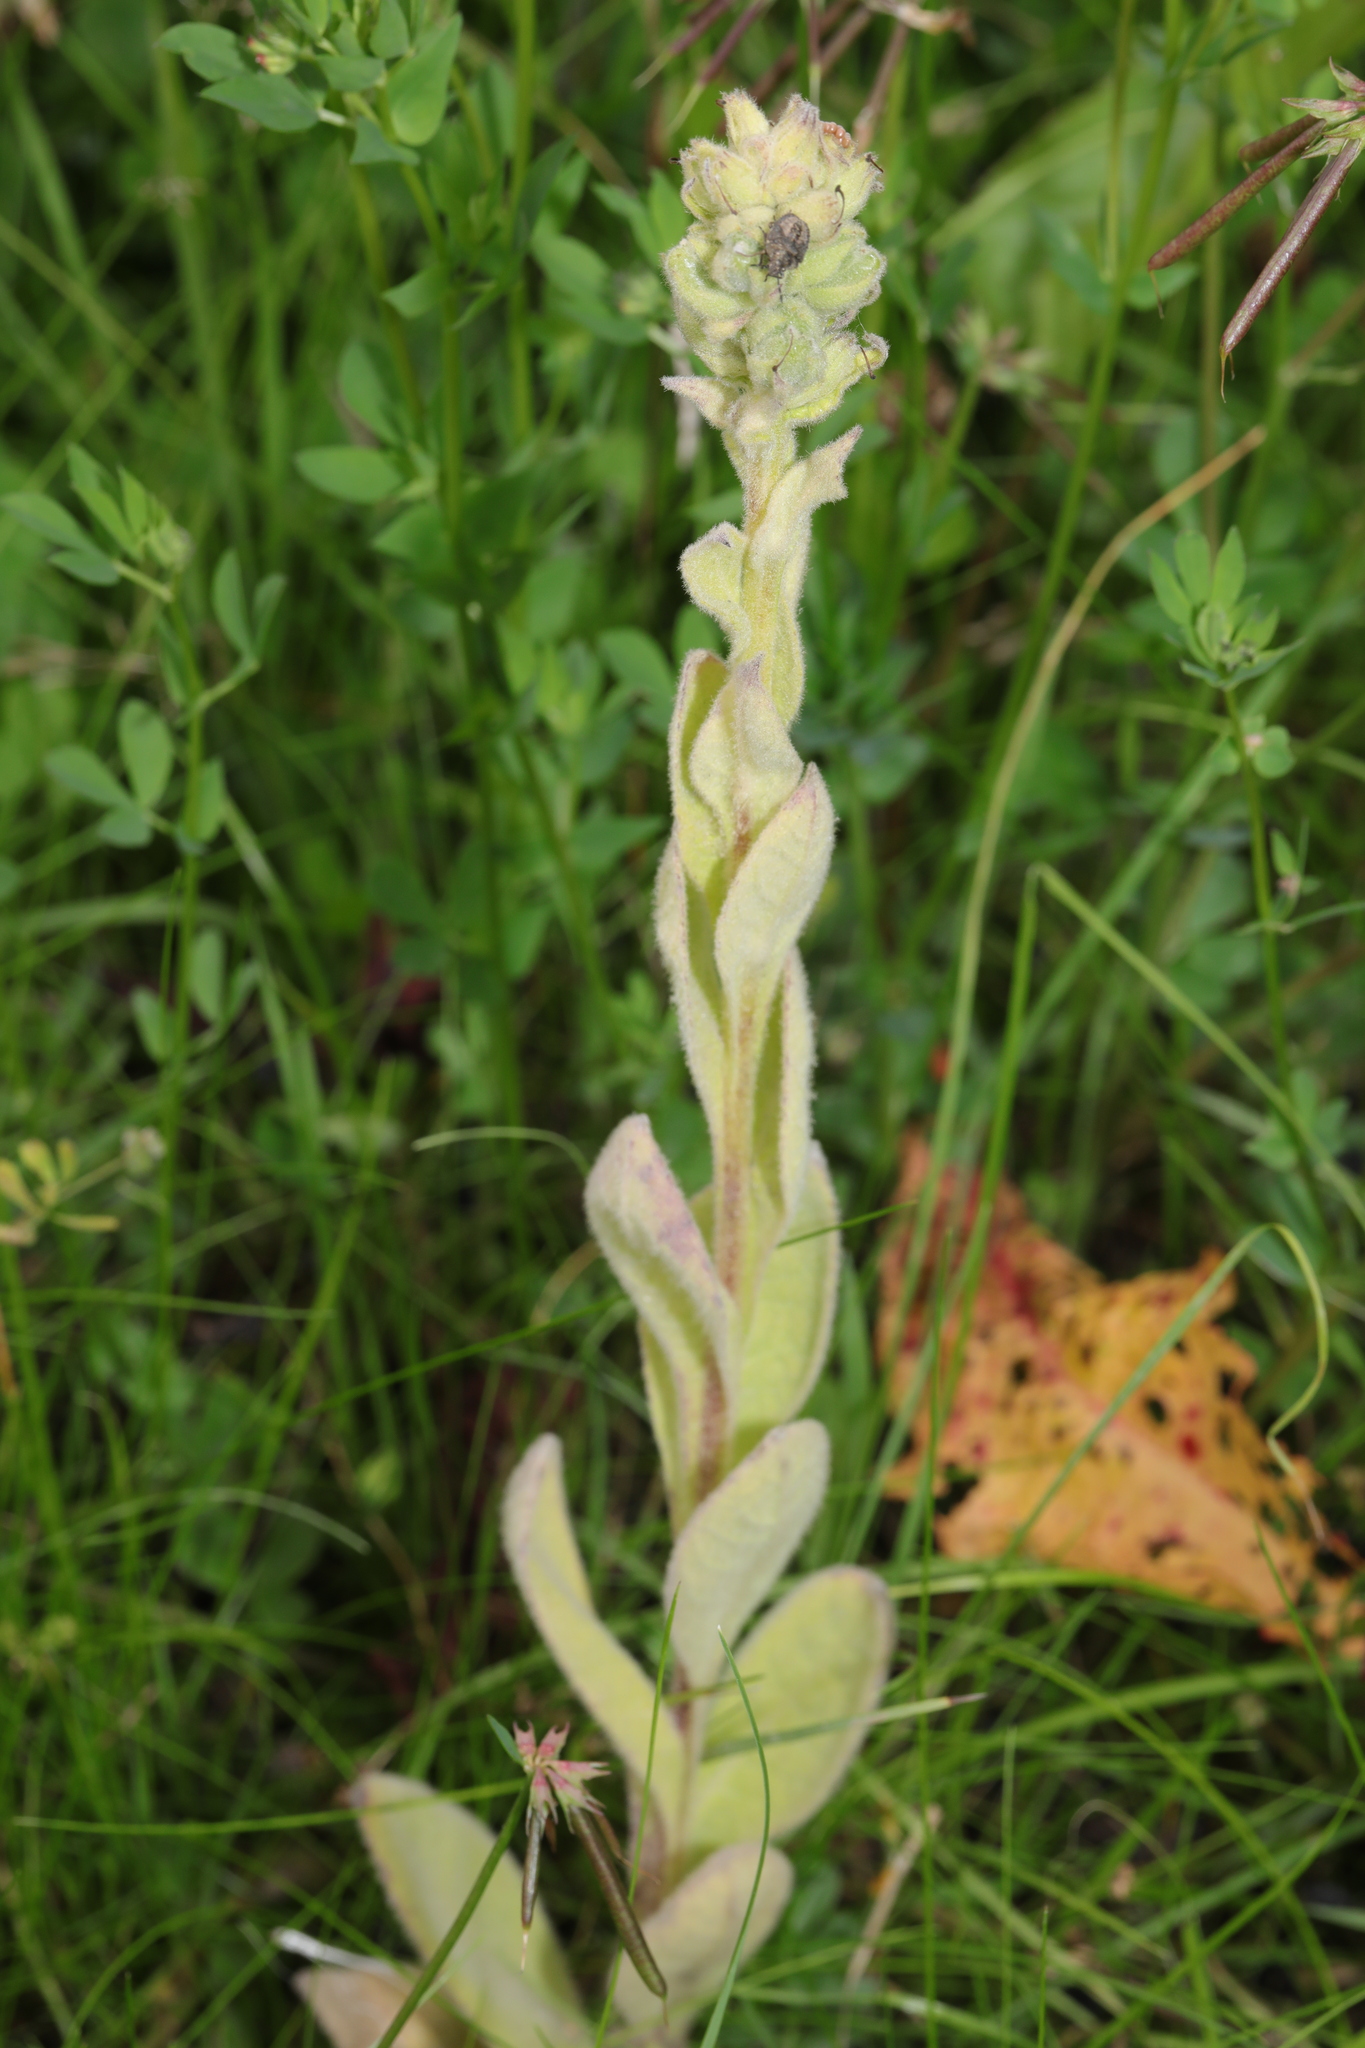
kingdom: Plantae
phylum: Tracheophyta
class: Magnoliopsida
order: Lamiales
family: Scrophulariaceae
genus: Verbascum
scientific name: Verbascum thapsus
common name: Common mullein
